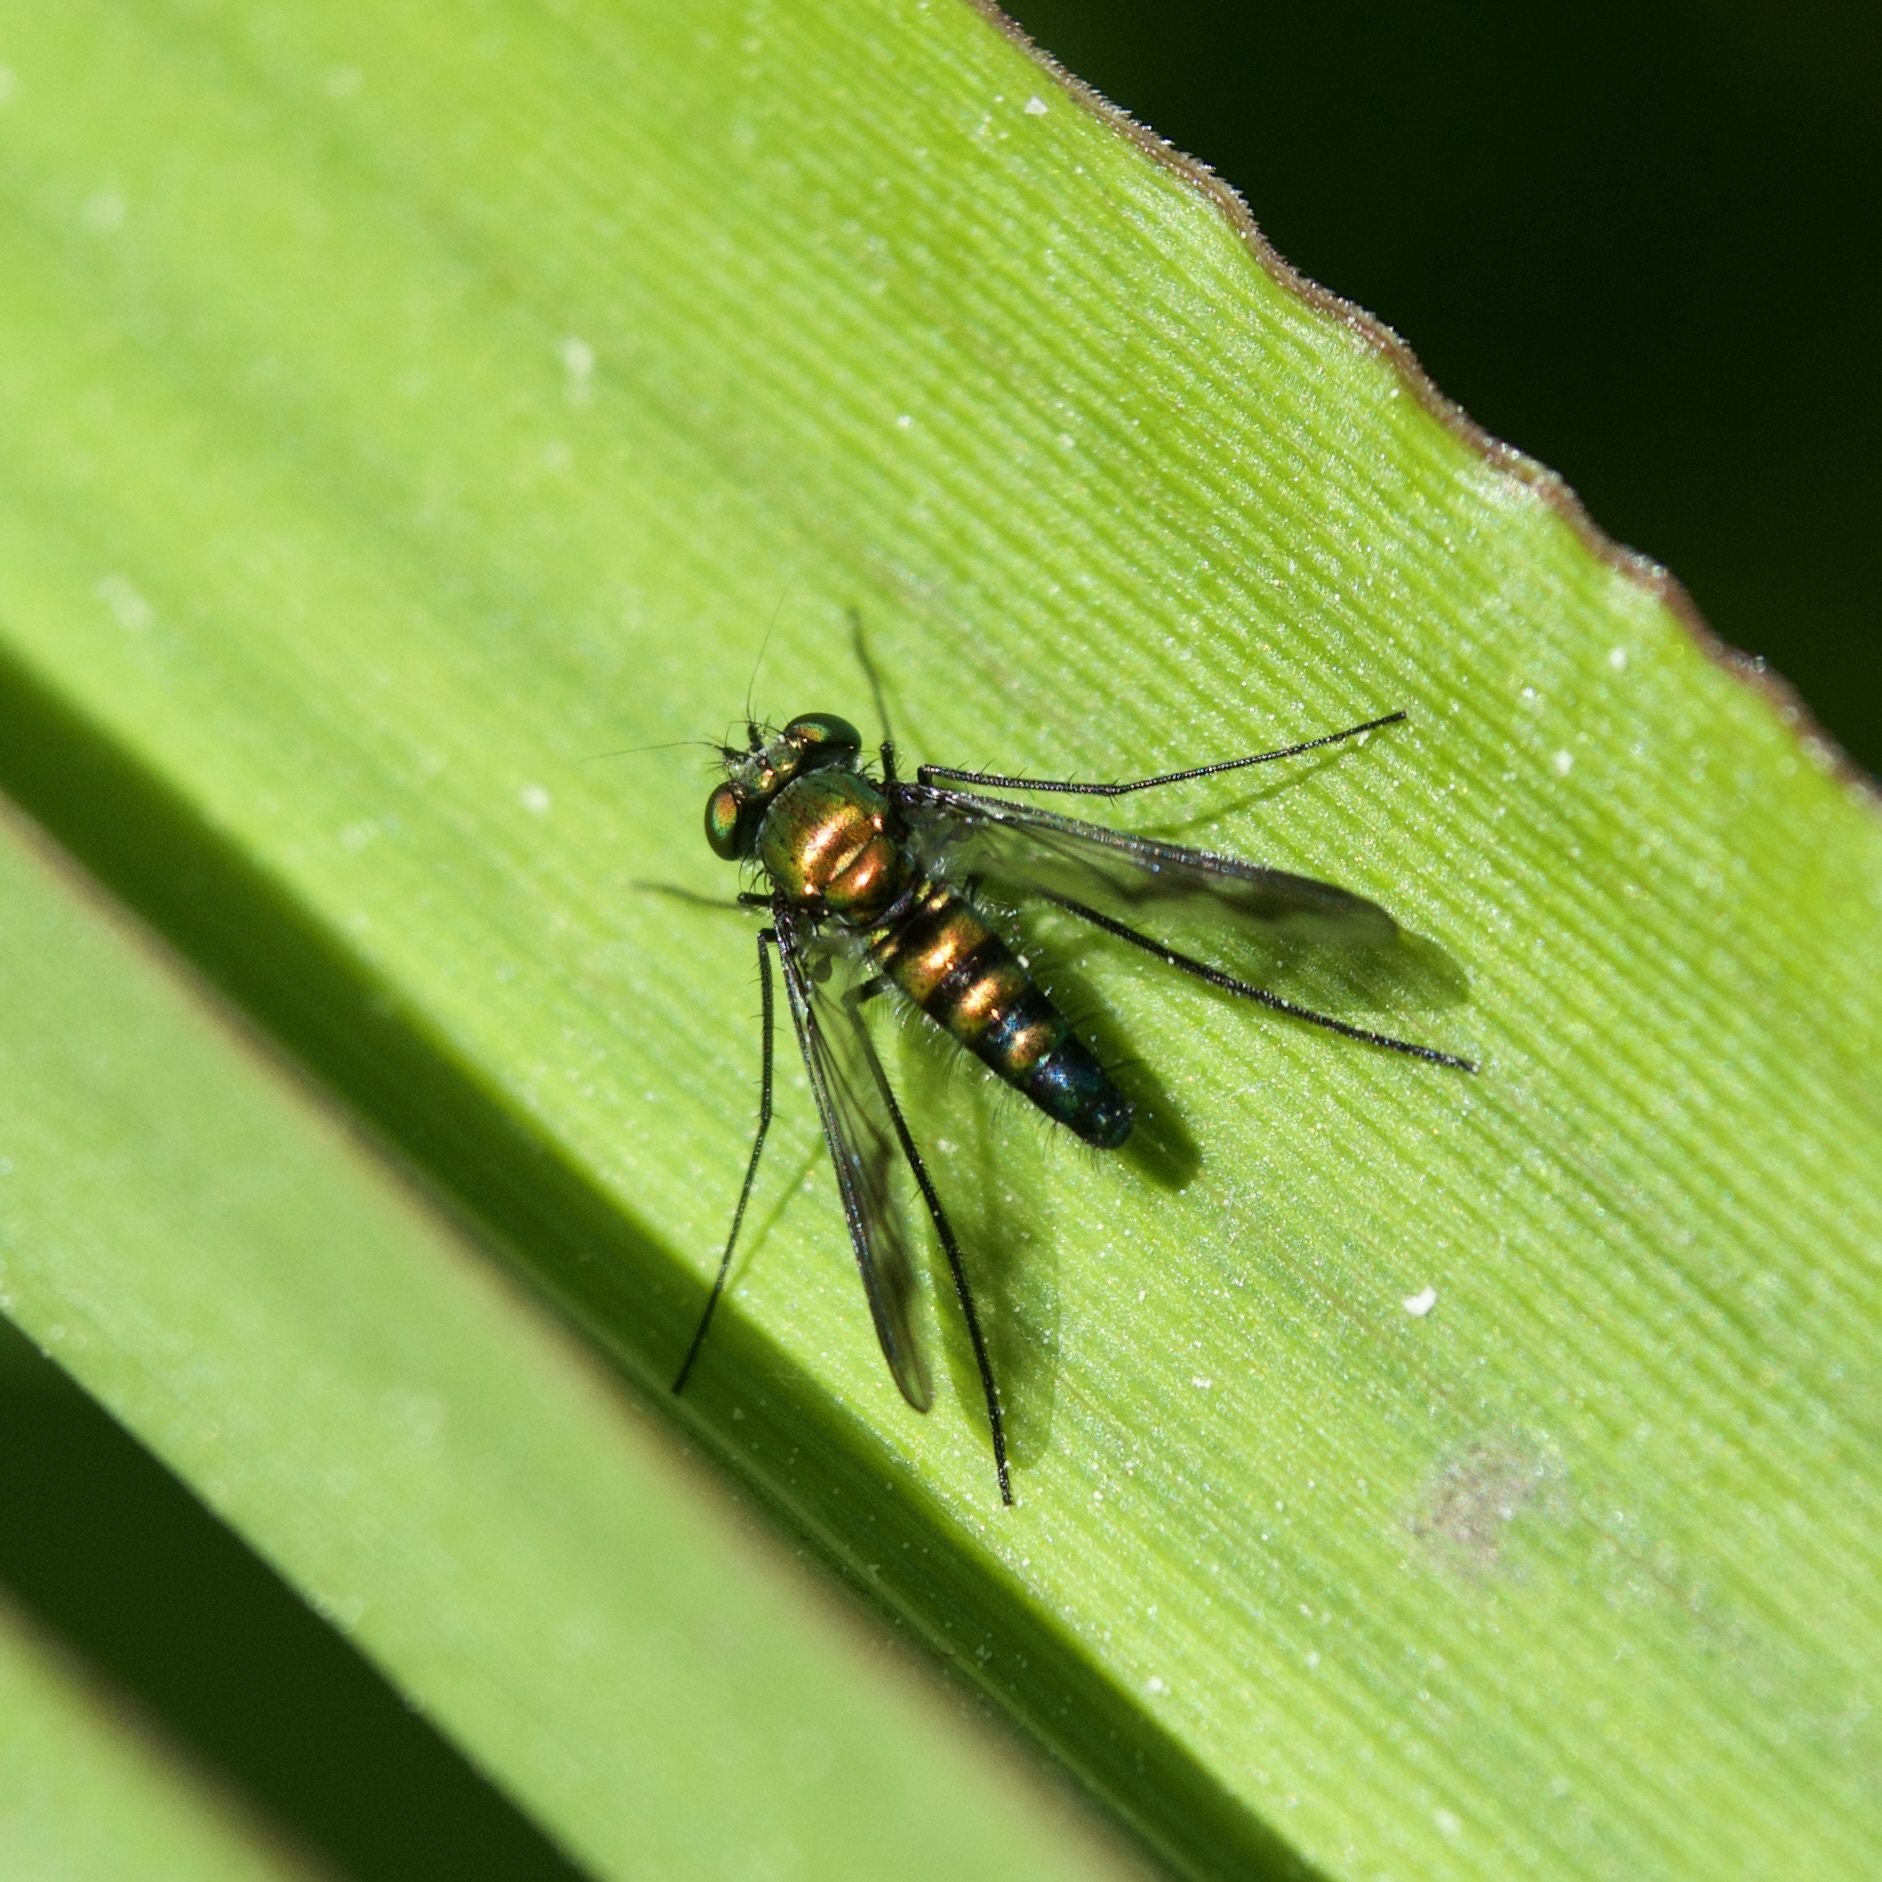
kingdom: Animalia
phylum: Arthropoda
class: Insecta
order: Diptera
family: Dolichopodidae
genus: Condylostylus
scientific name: Condylostylus patibulatus
